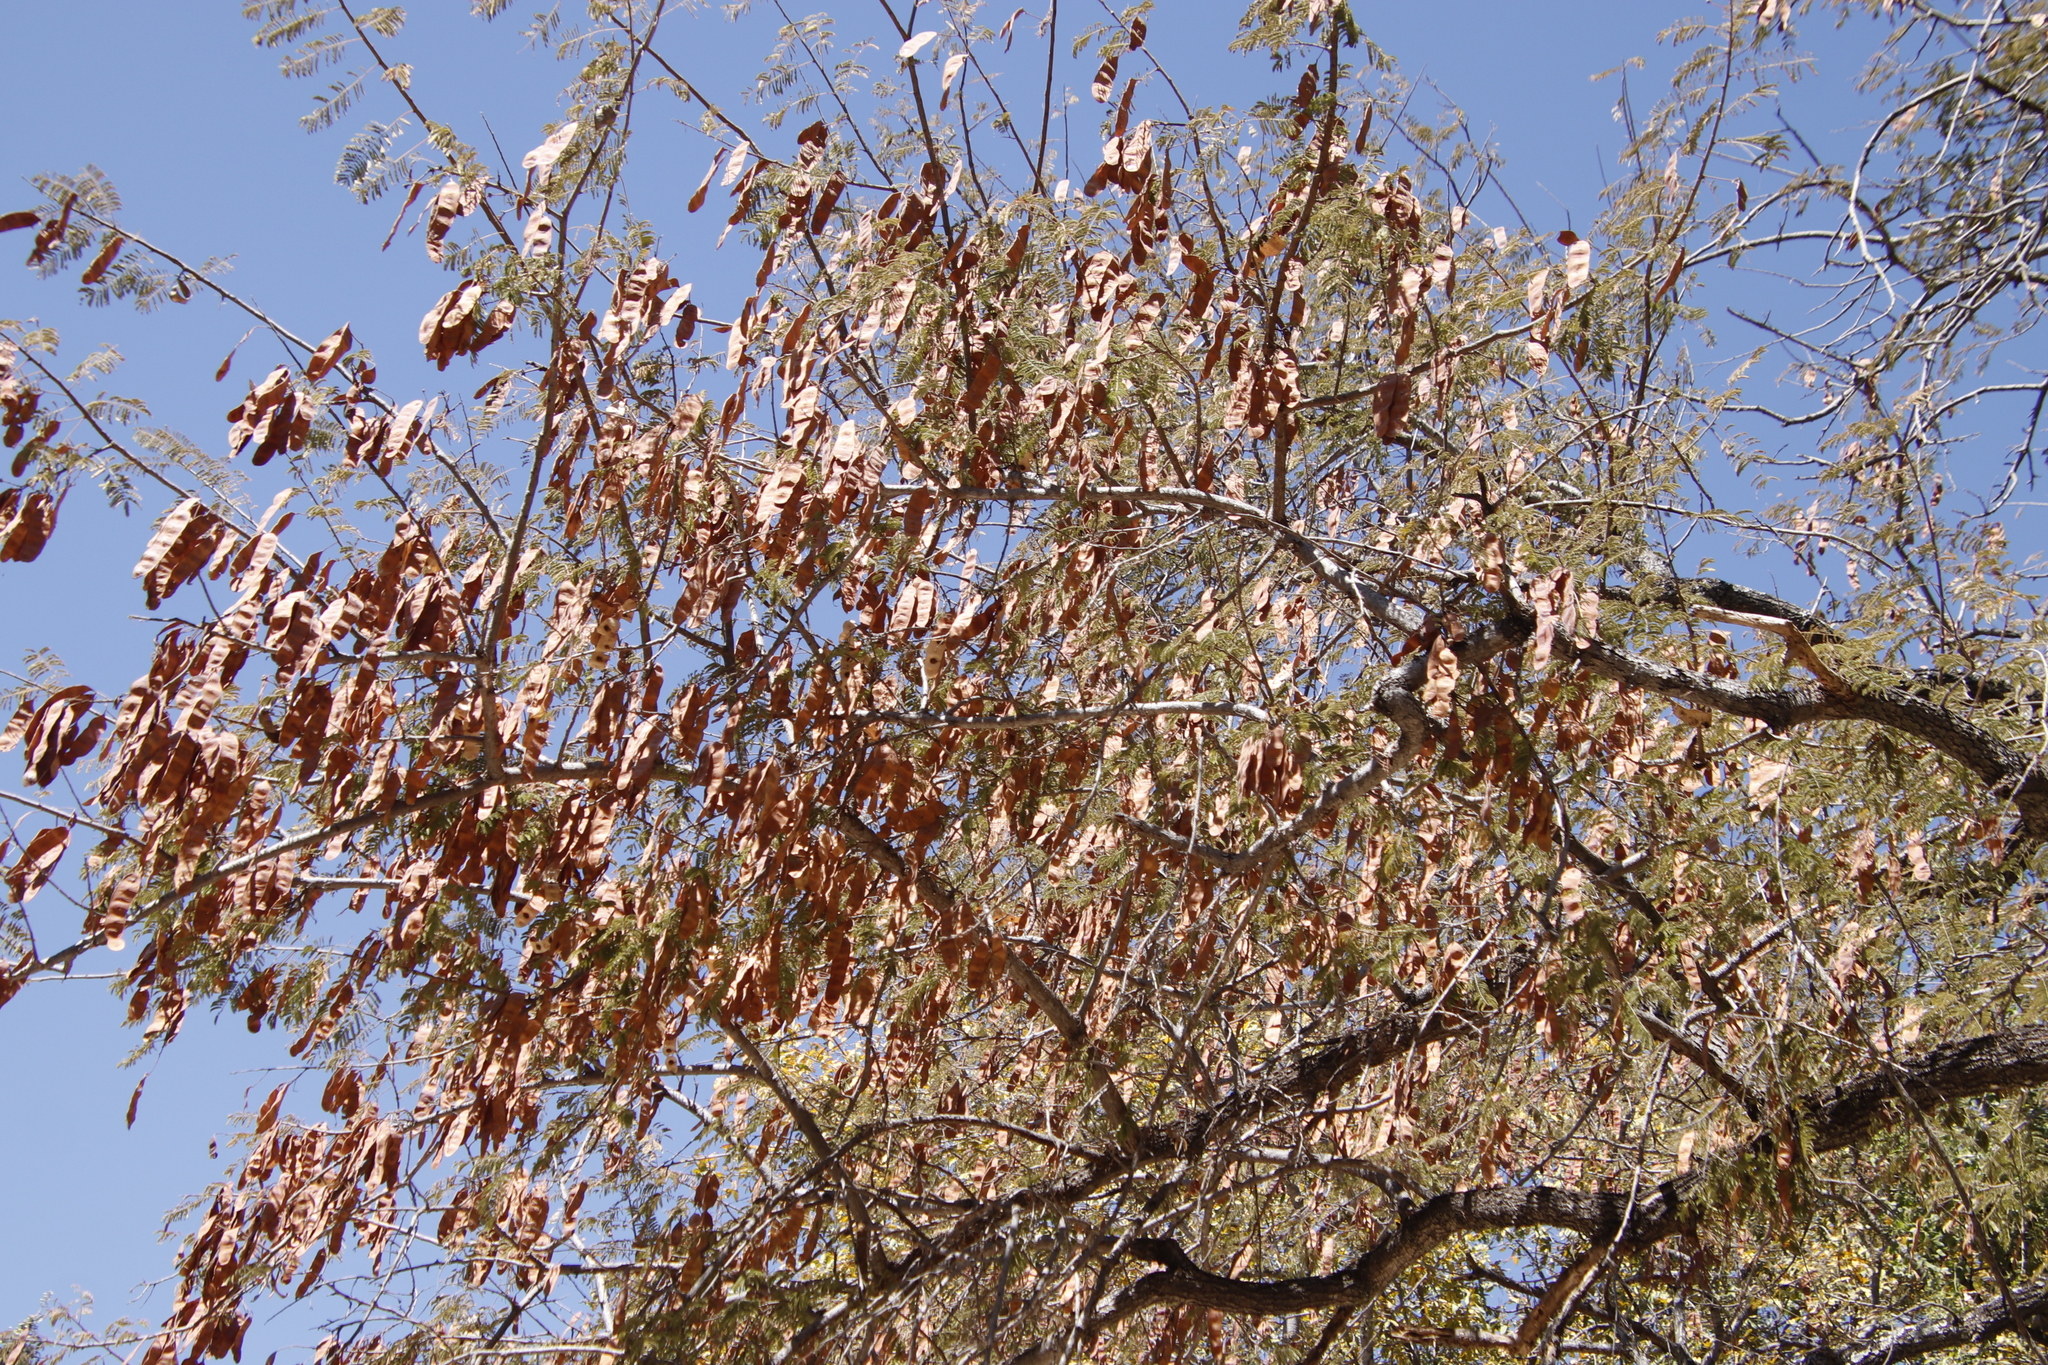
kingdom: Plantae
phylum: Tracheophyta
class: Magnoliopsida
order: Fabales
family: Fabaceae
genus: Peltophorum
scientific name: Peltophorum africanum
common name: African black wattle
